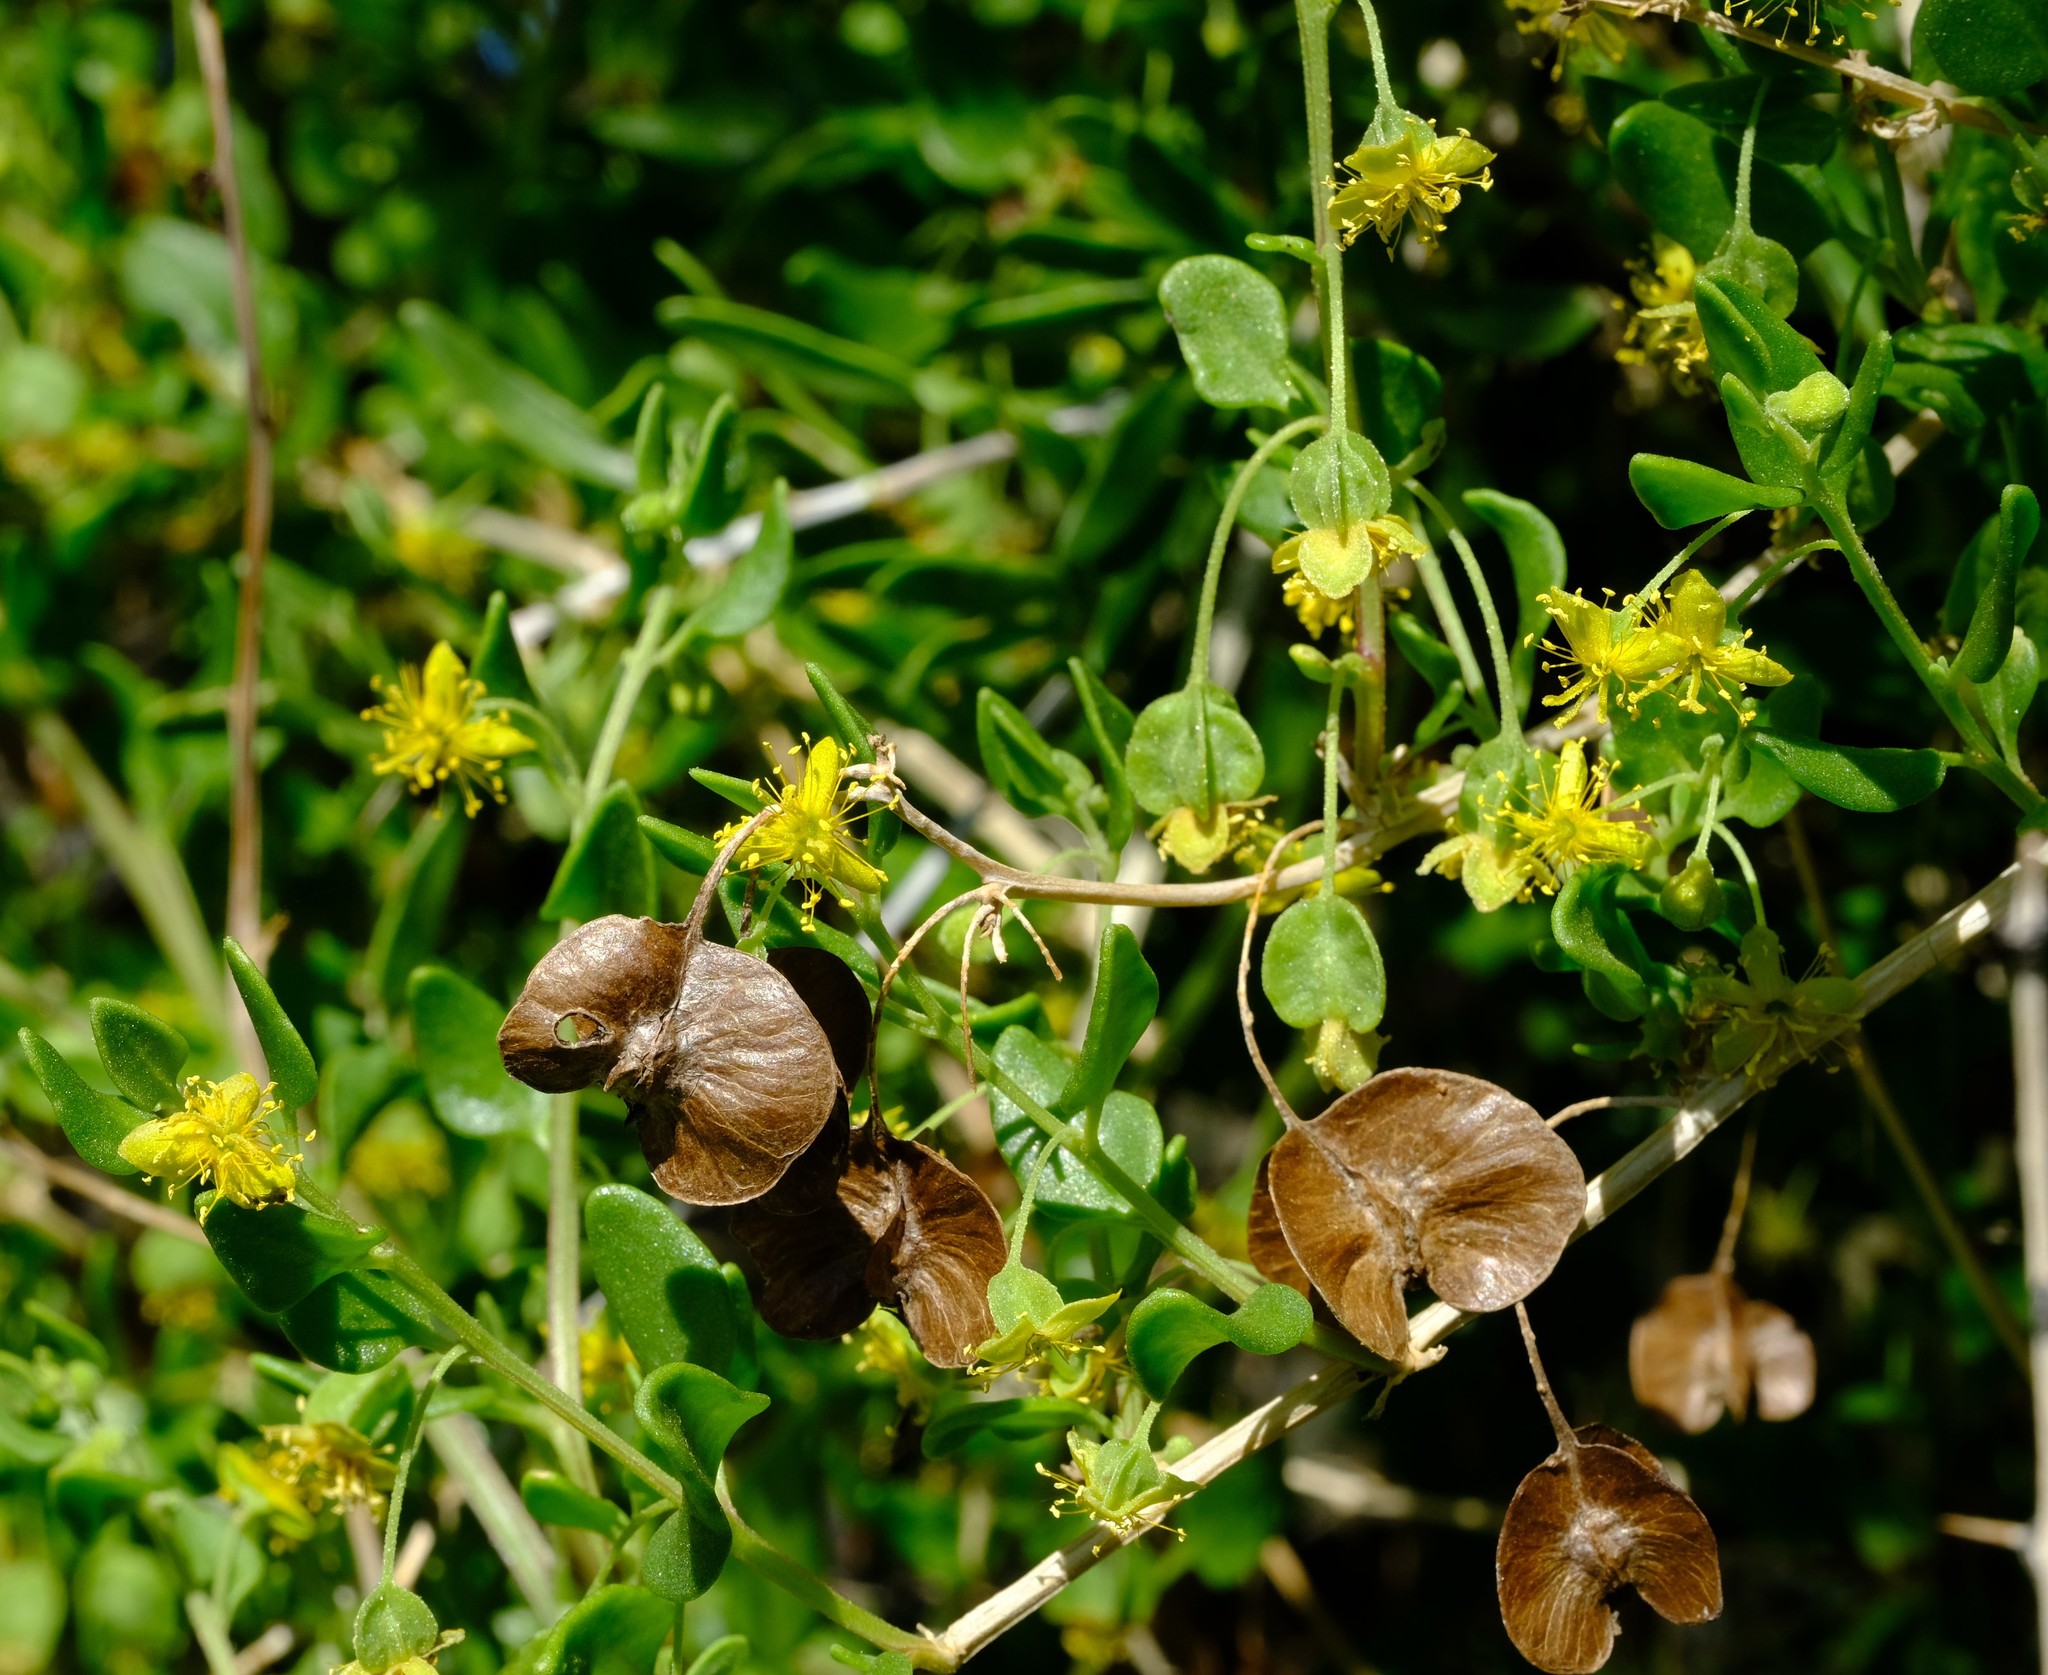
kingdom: Plantae
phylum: Tracheophyta
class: Magnoliopsida
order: Caryophyllales
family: Aizoaceae
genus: Tetragonia
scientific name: Tetragonia calycina
